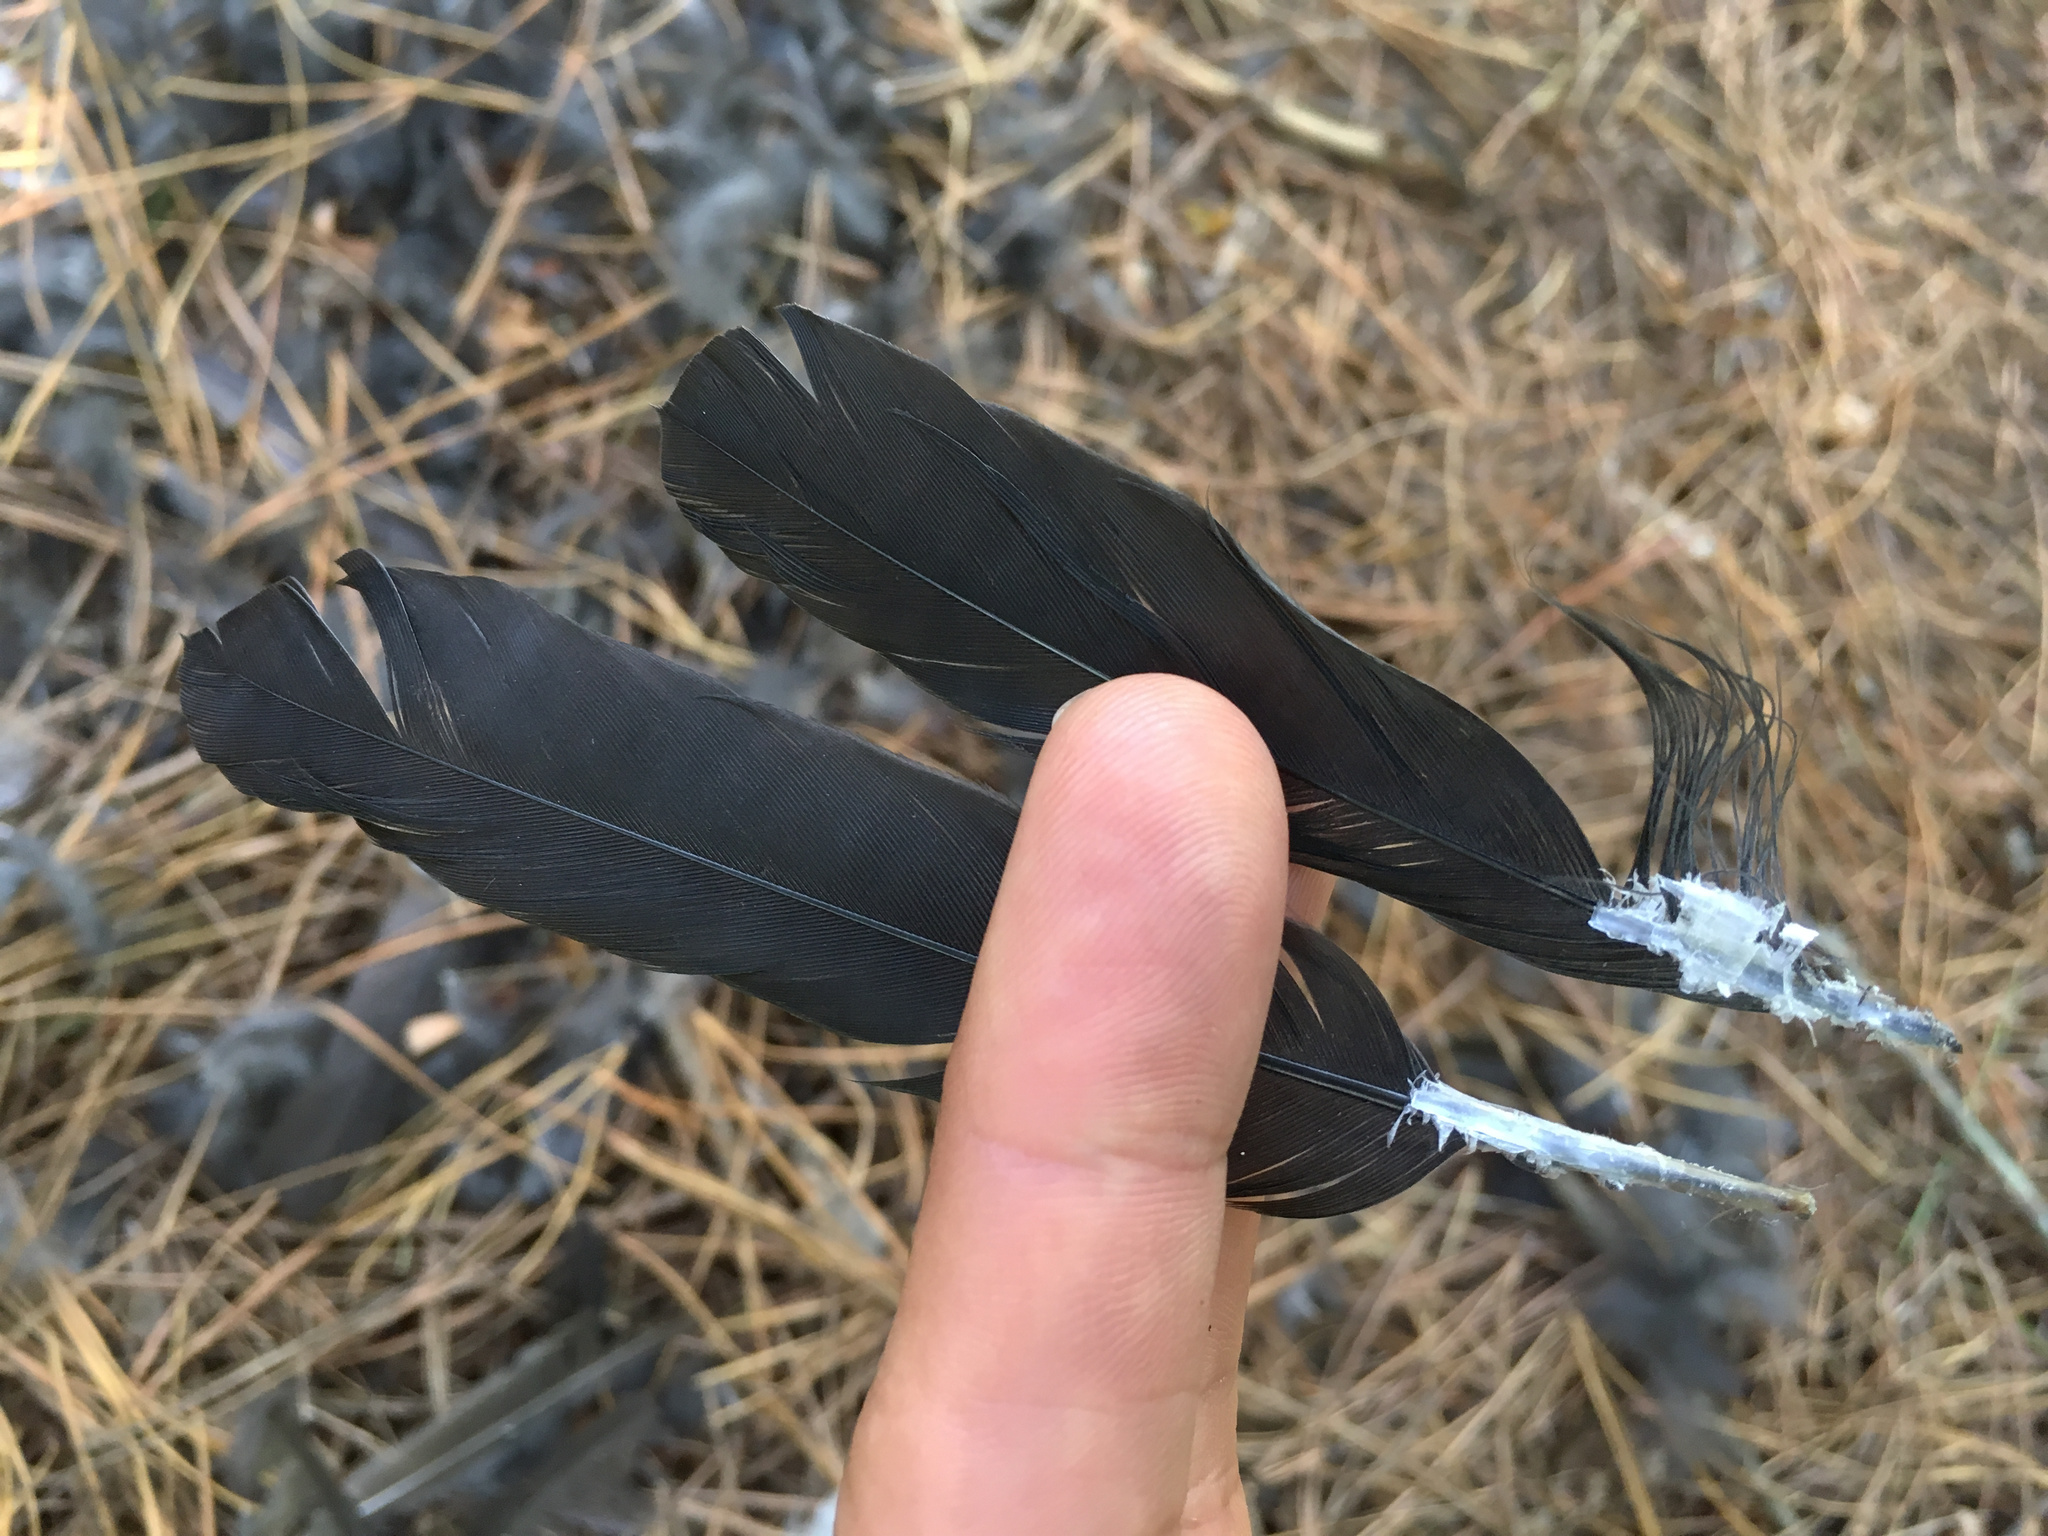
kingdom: Animalia
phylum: Chordata
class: Aves
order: Passeriformes
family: Turdidae
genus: Turdus
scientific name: Turdus merula
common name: Common blackbird
